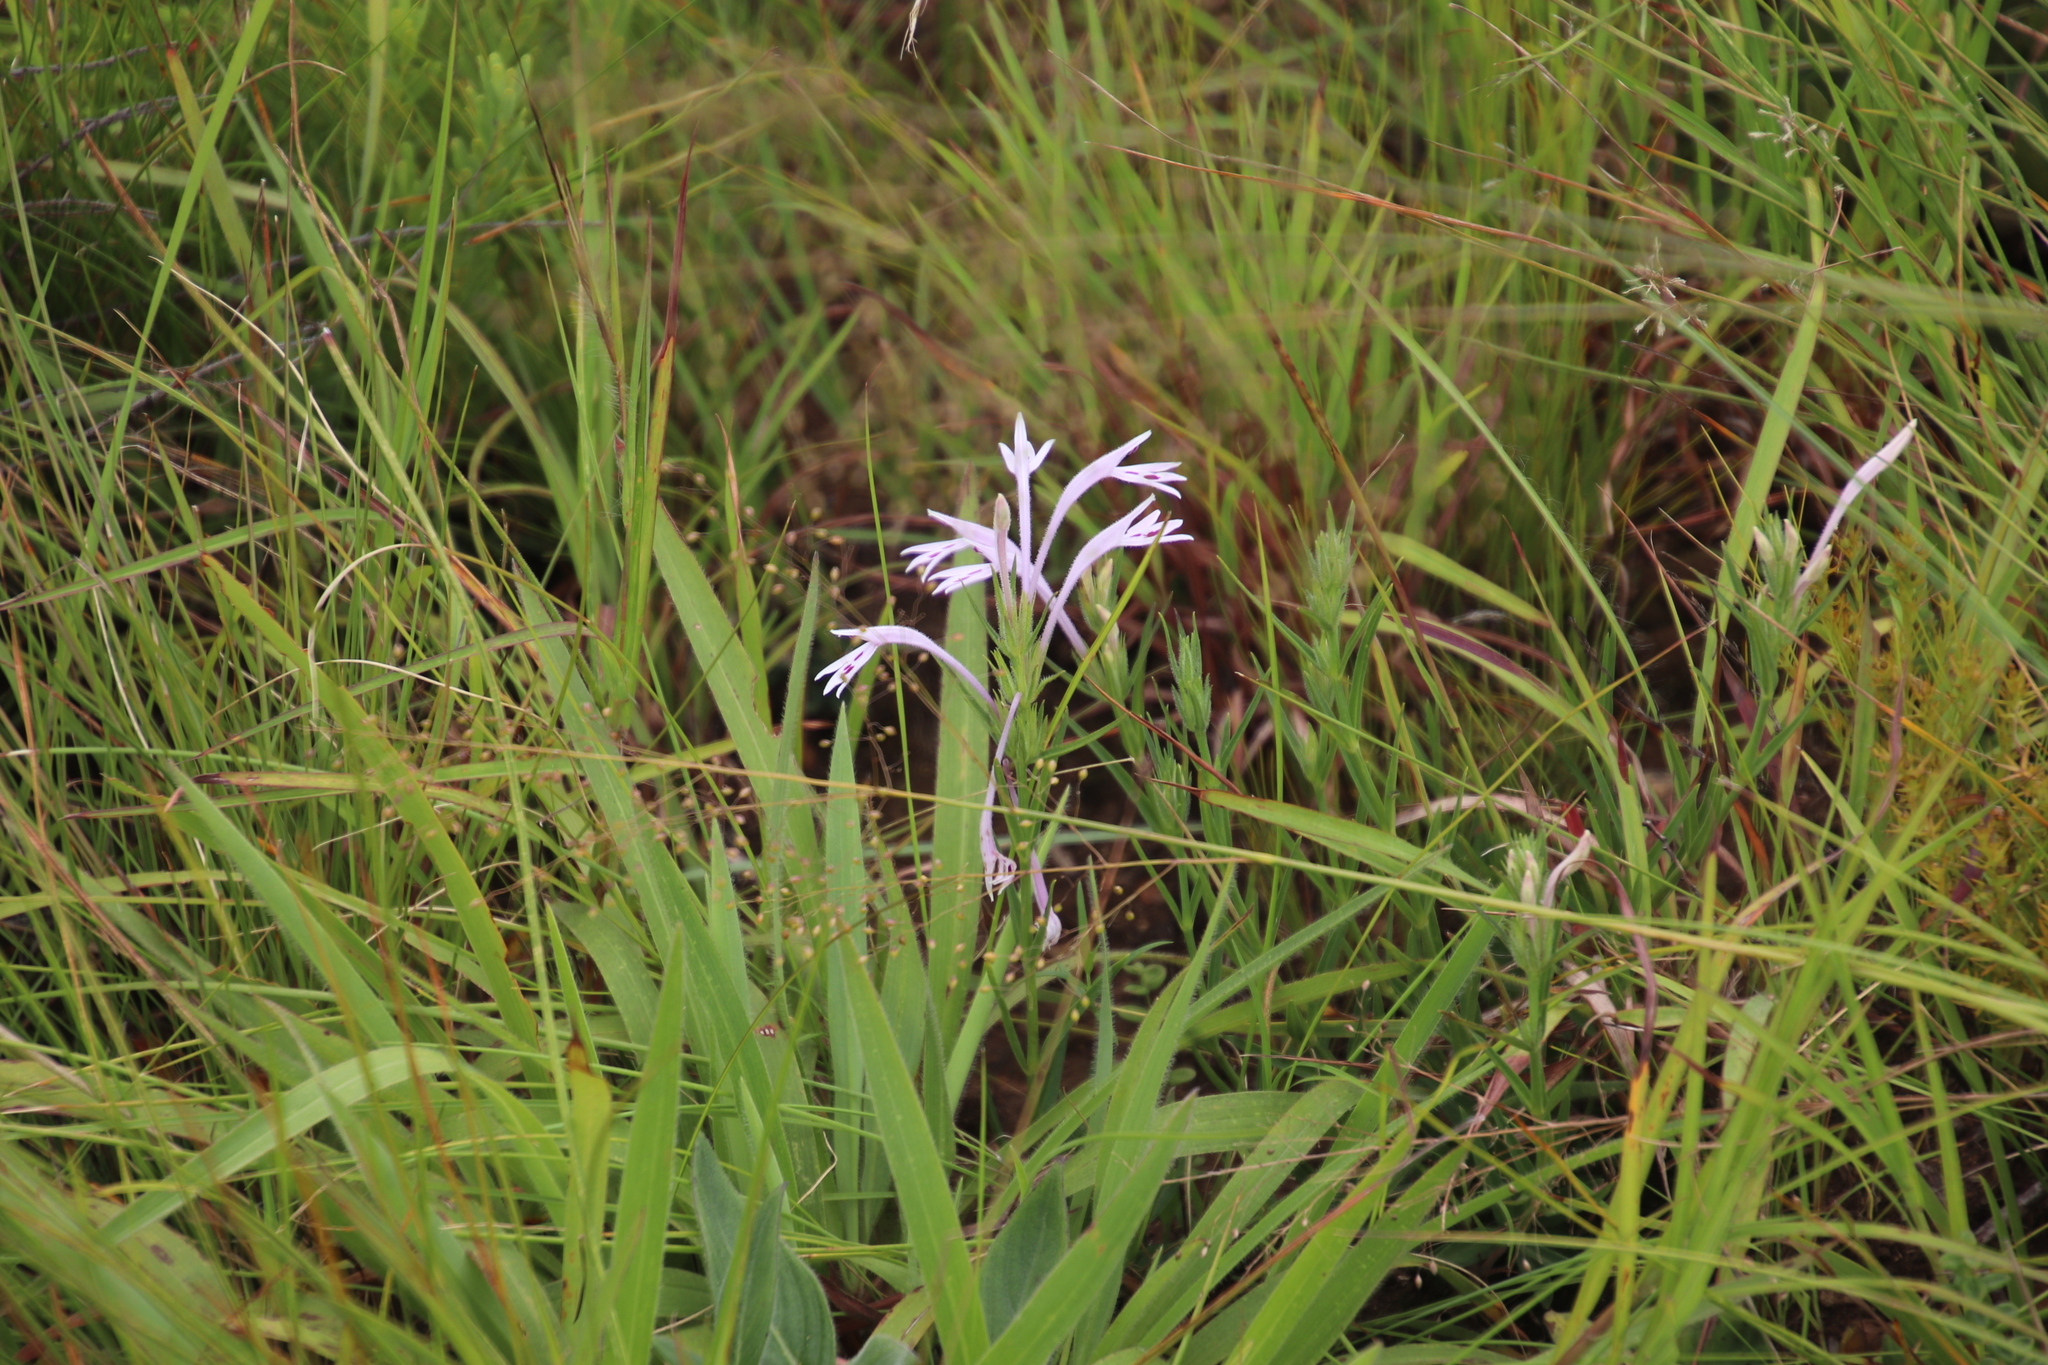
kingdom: Plantae
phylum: Tracheophyta
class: Magnoliopsida
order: Lamiales
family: Acanthaceae
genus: Justicia
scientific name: Justicia linifolia
